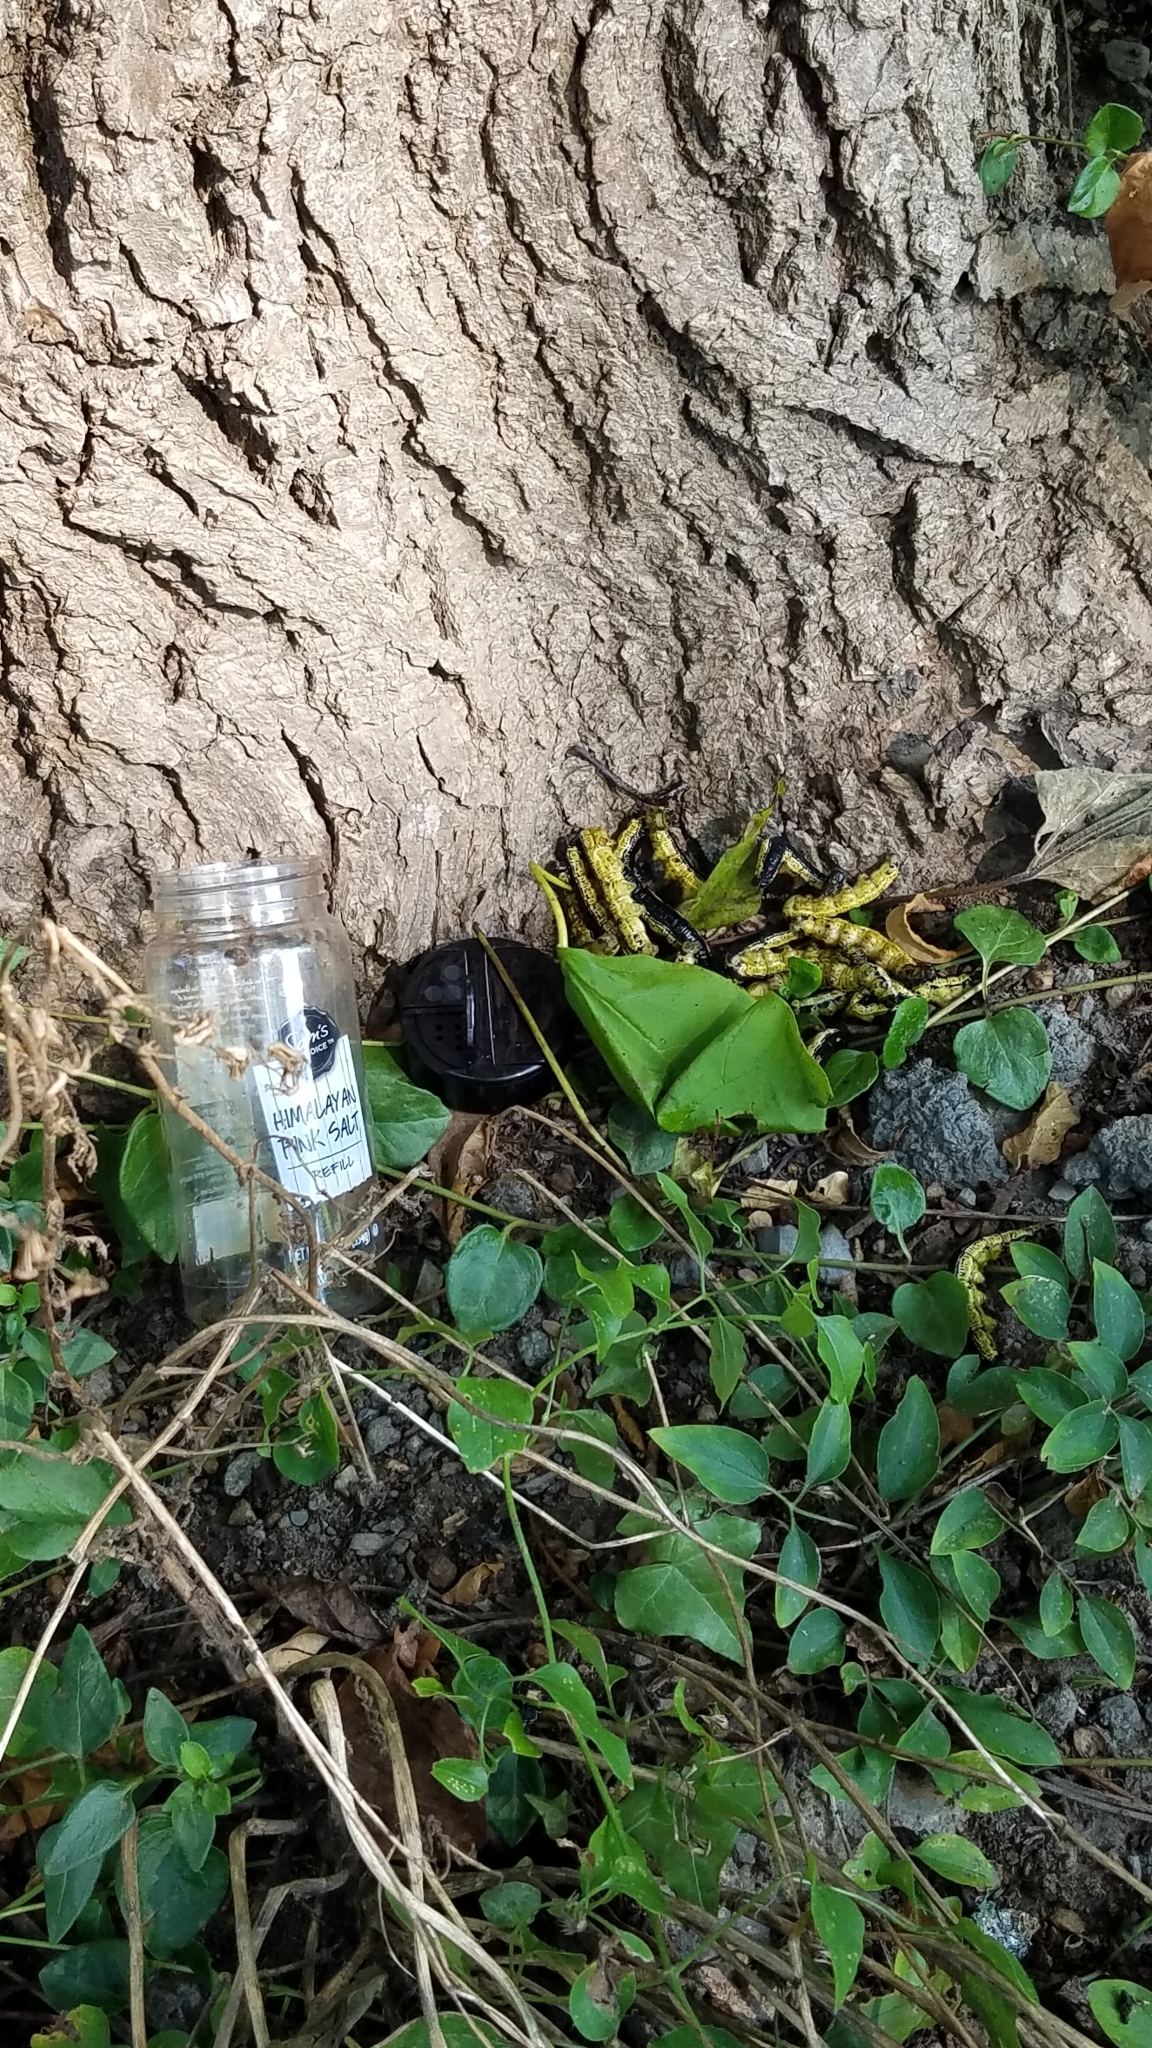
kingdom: Animalia
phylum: Arthropoda
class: Insecta
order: Lepidoptera
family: Sphingidae
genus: Ceratomia
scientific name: Ceratomia catalpae
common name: Catalpa hornworm
